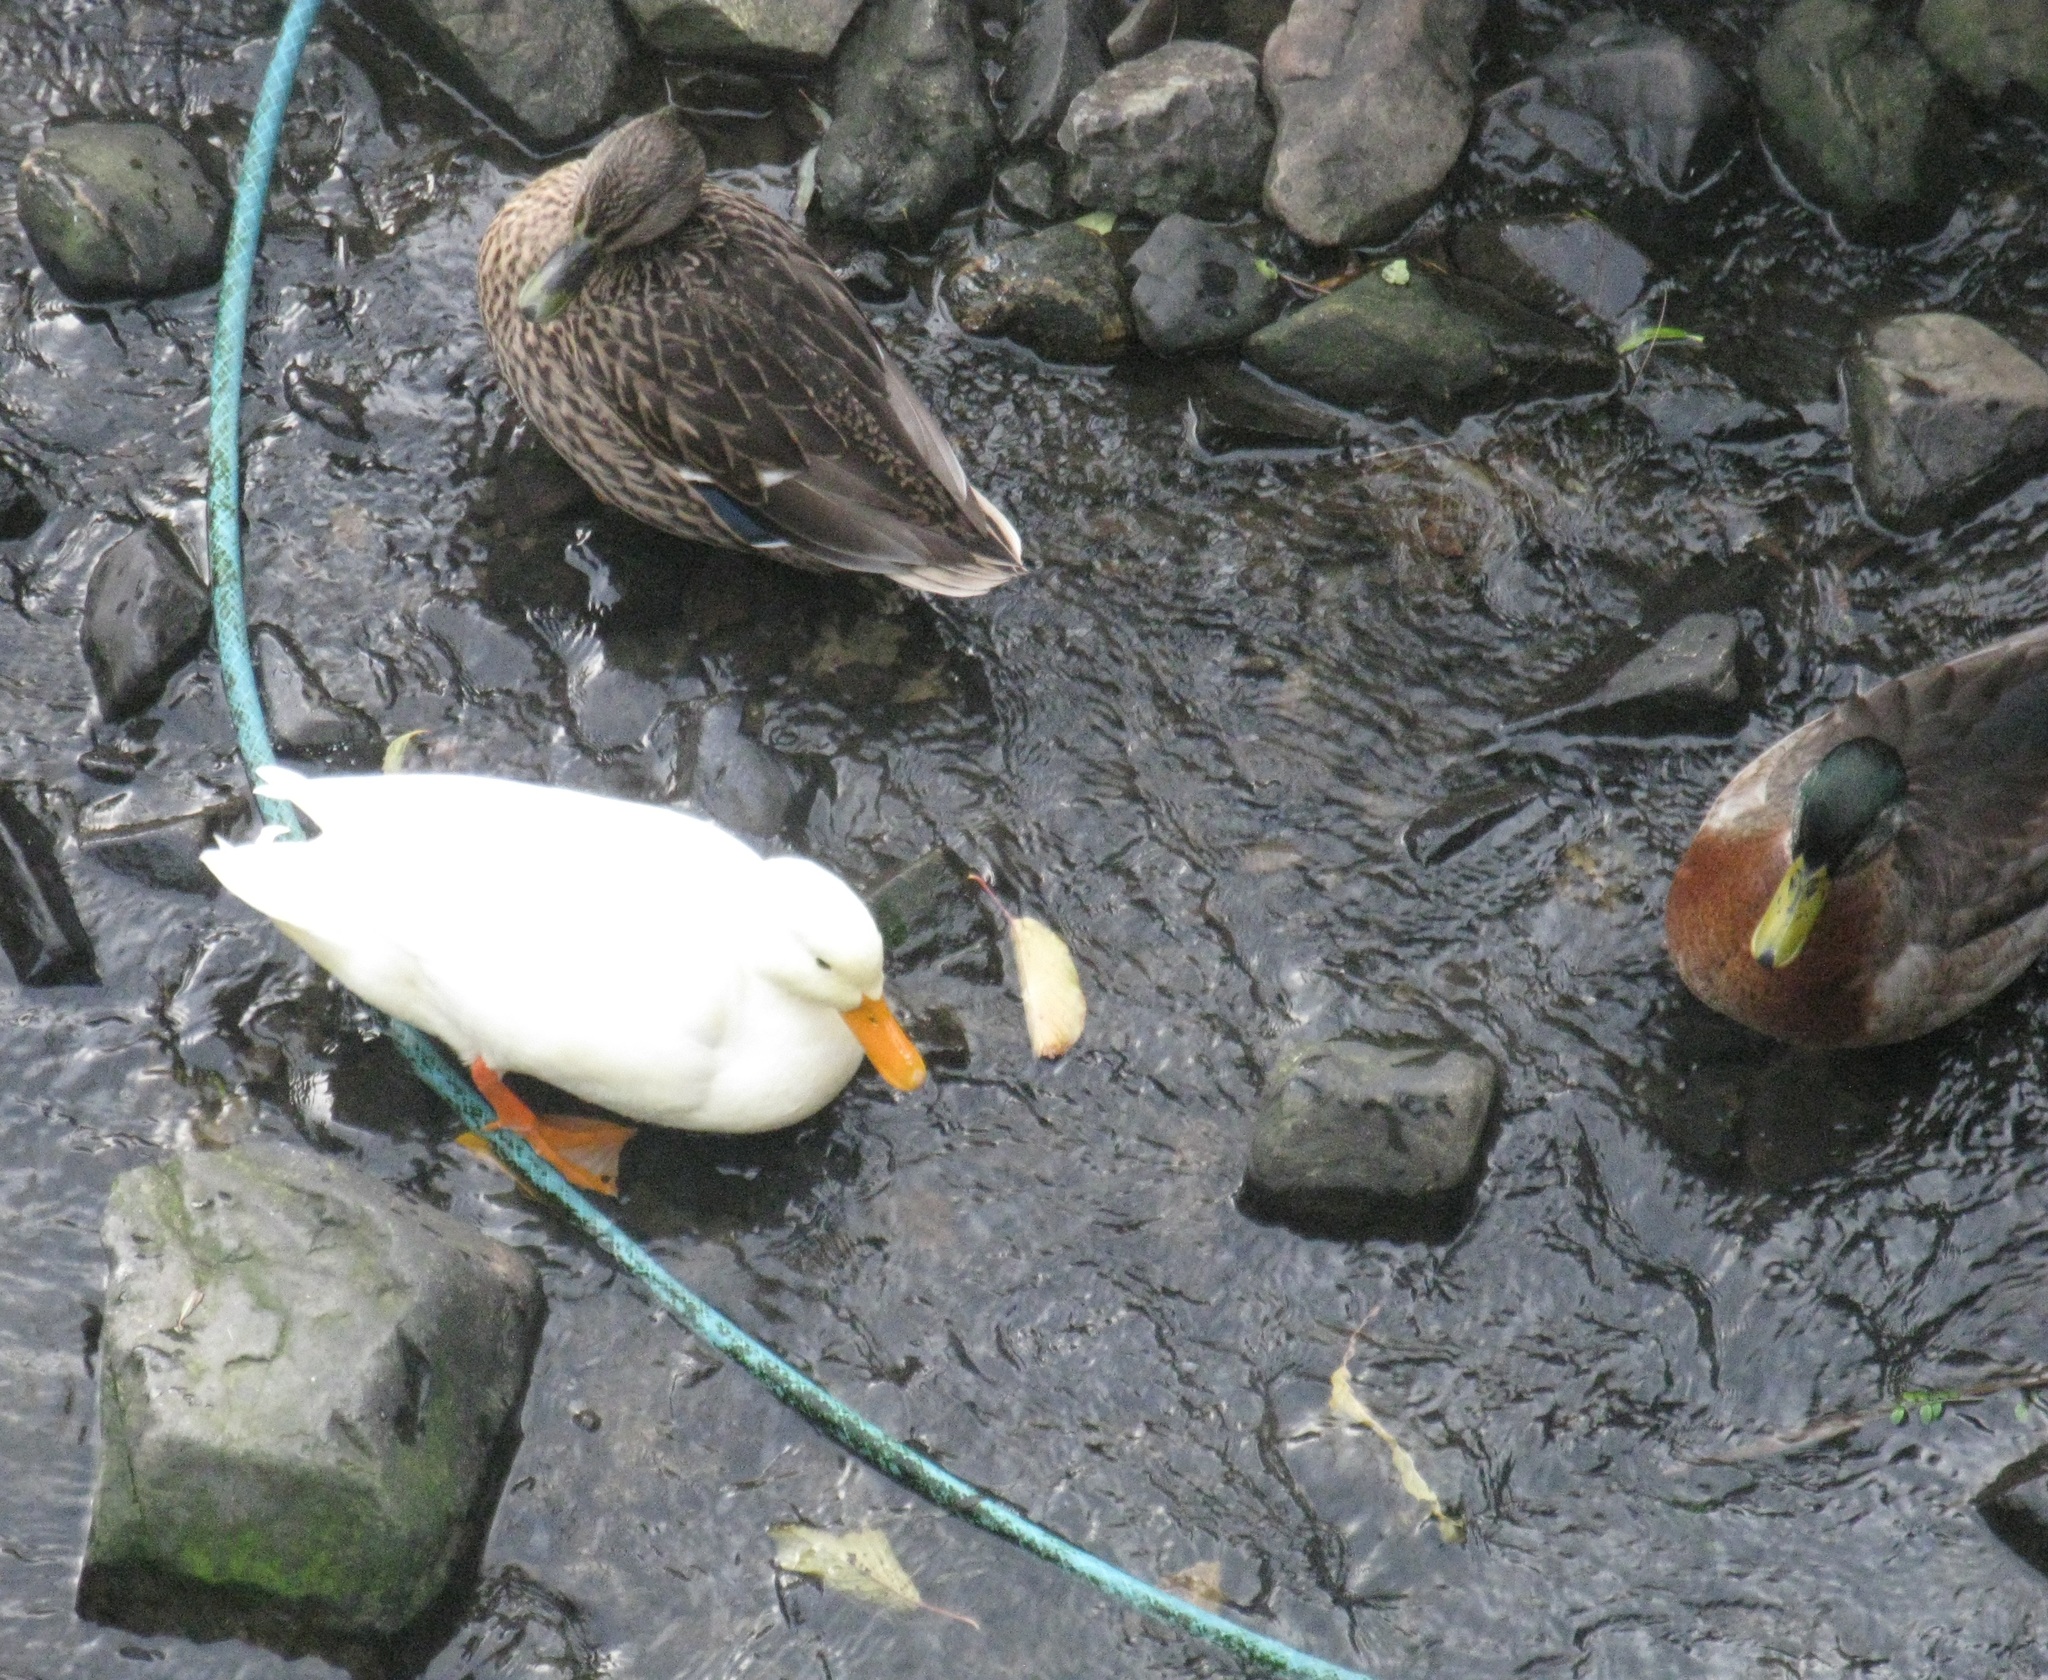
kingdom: Animalia
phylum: Chordata
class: Aves
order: Anseriformes
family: Anatidae
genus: Anas
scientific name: Anas platyrhynchos
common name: Mallard
